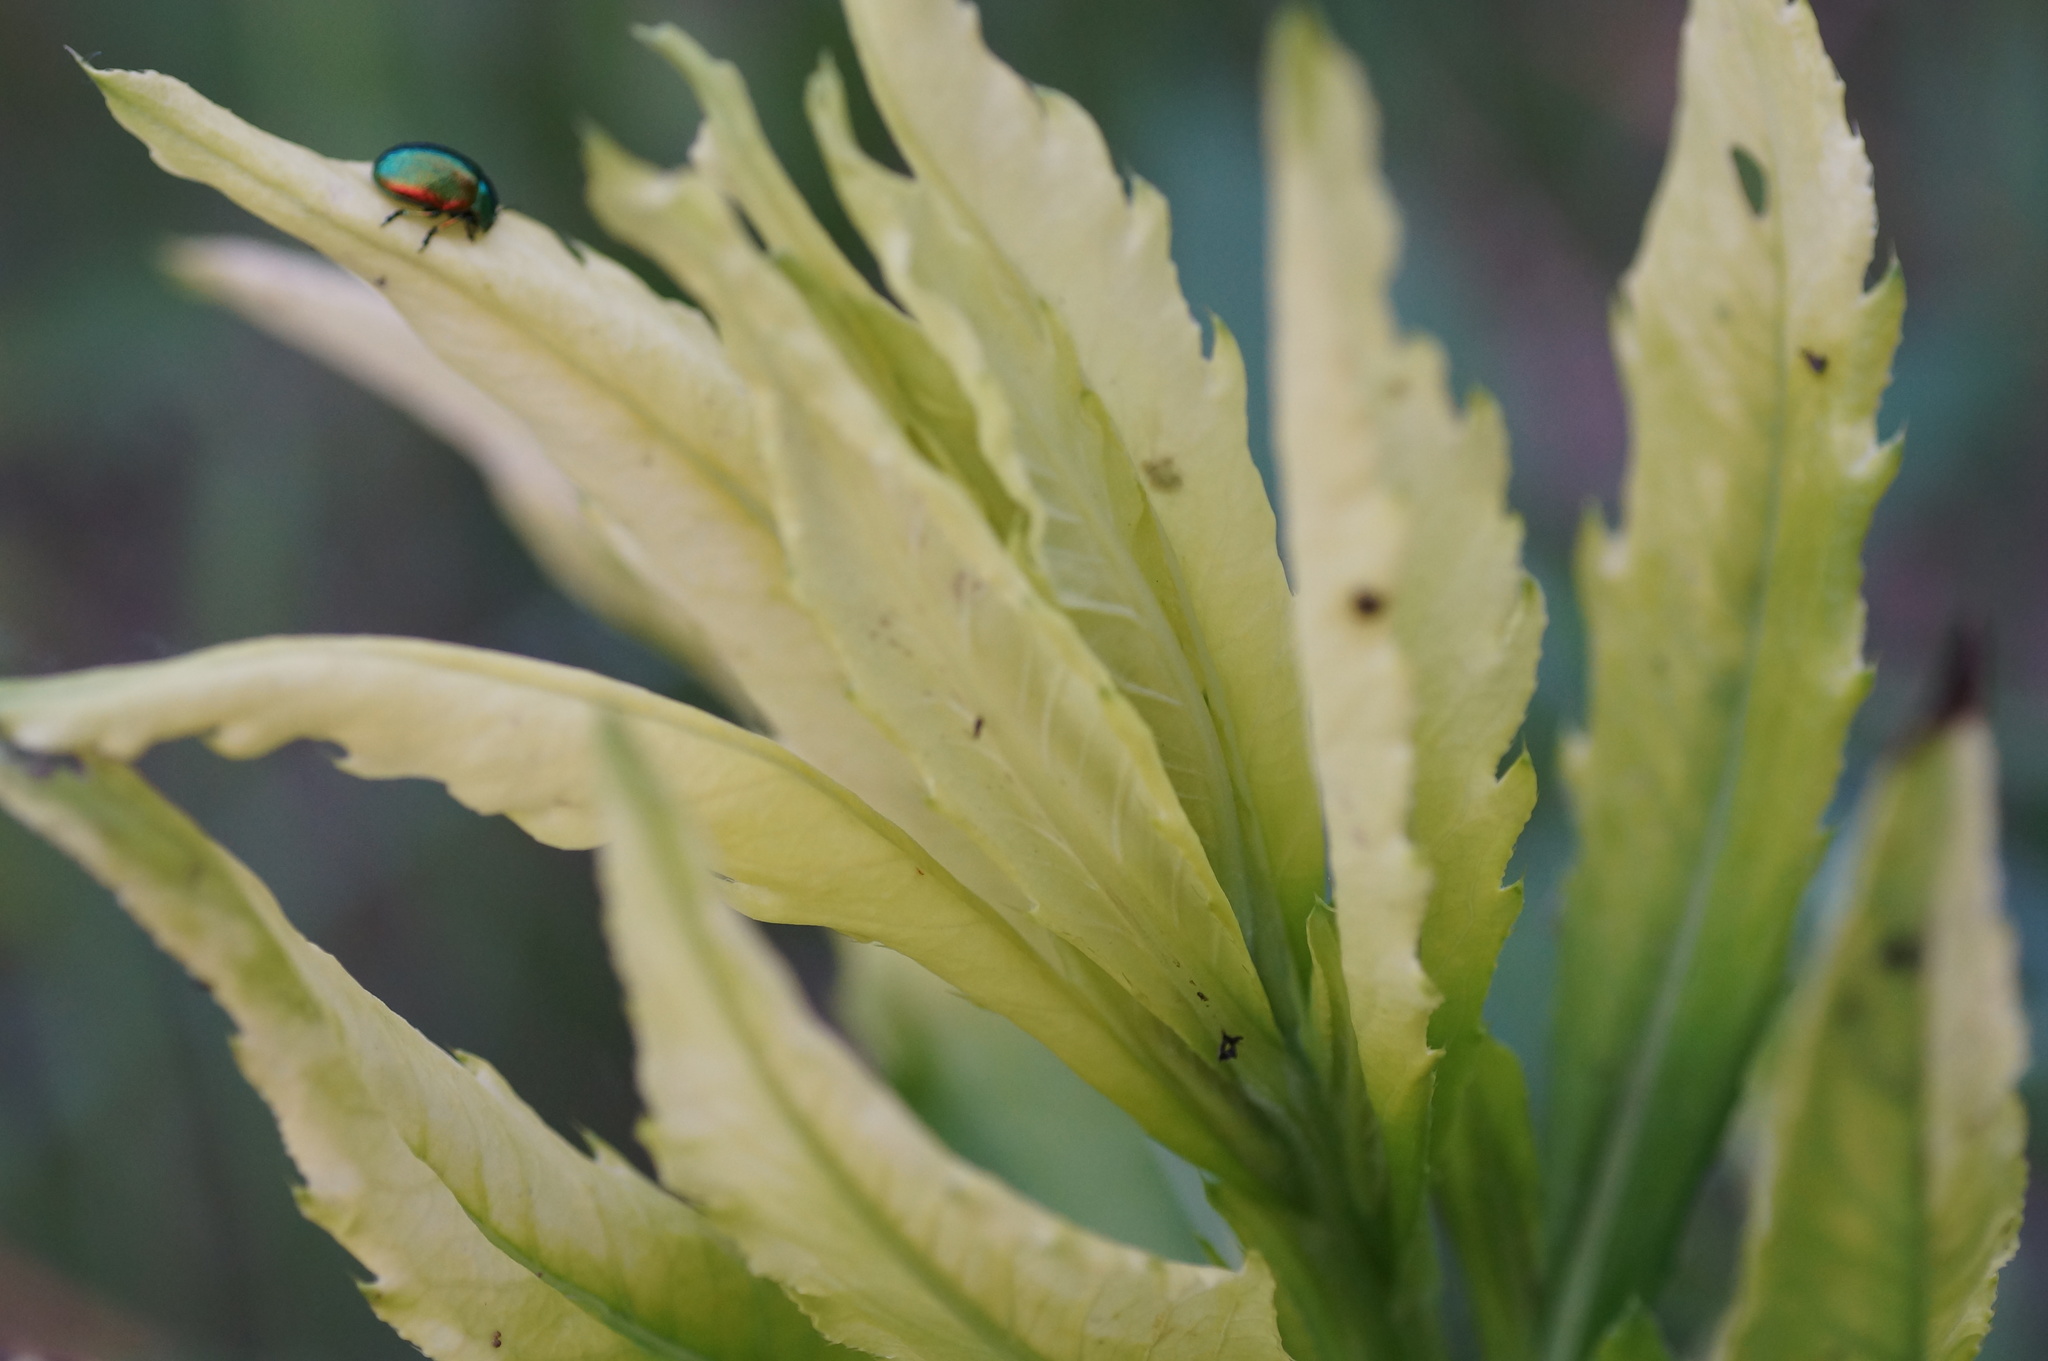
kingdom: Bacteria
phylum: Proteobacteria
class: Gammaproteobacteria
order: Pseudomonadales
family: Pseudomonadaceae
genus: Pseudomonas
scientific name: Pseudomonas syringae
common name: Bacterial speck
